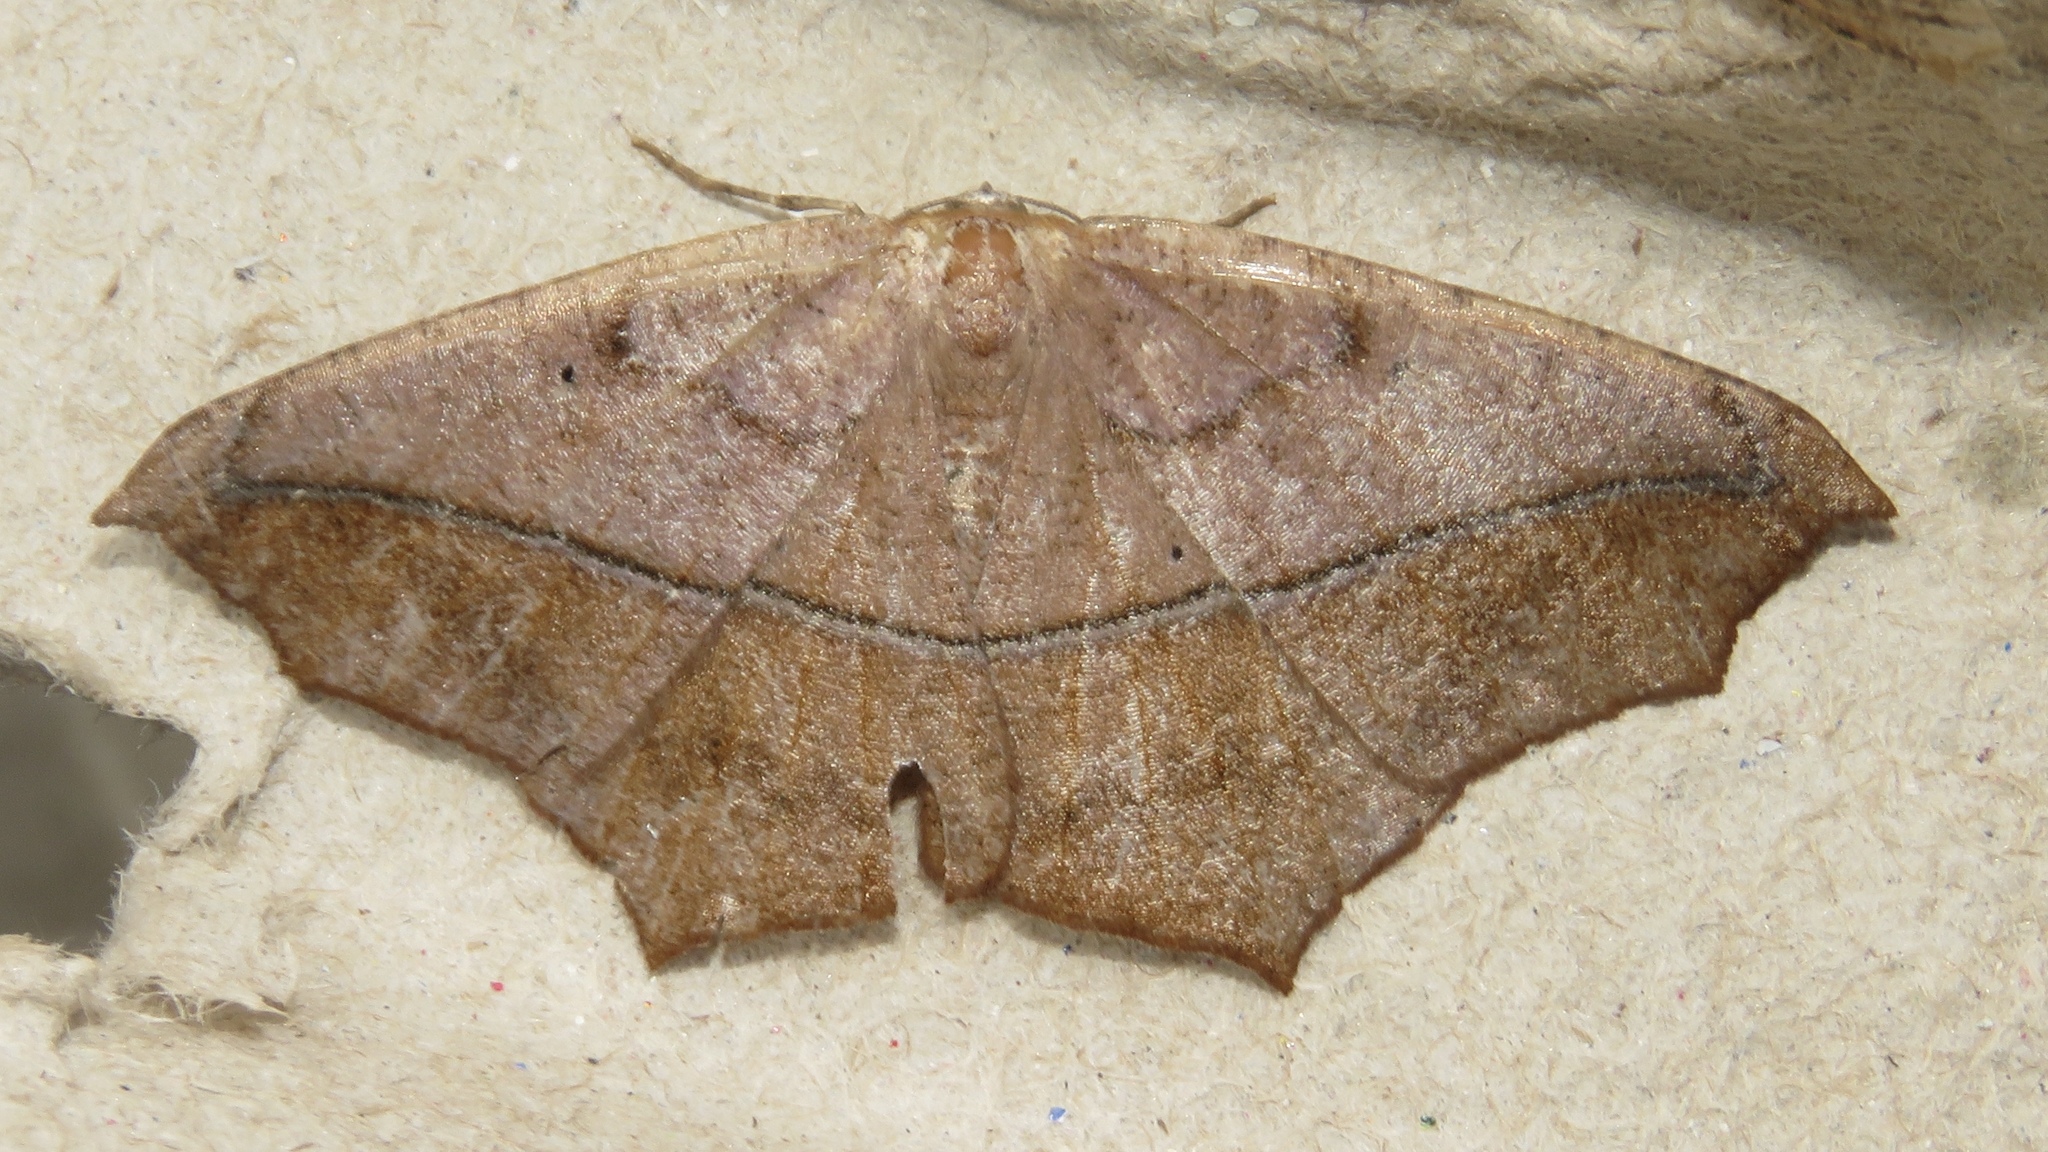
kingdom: Animalia
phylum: Arthropoda
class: Insecta
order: Lepidoptera
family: Geometridae
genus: Prochoerodes
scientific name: Prochoerodes lineola
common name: Large maple spanworm
